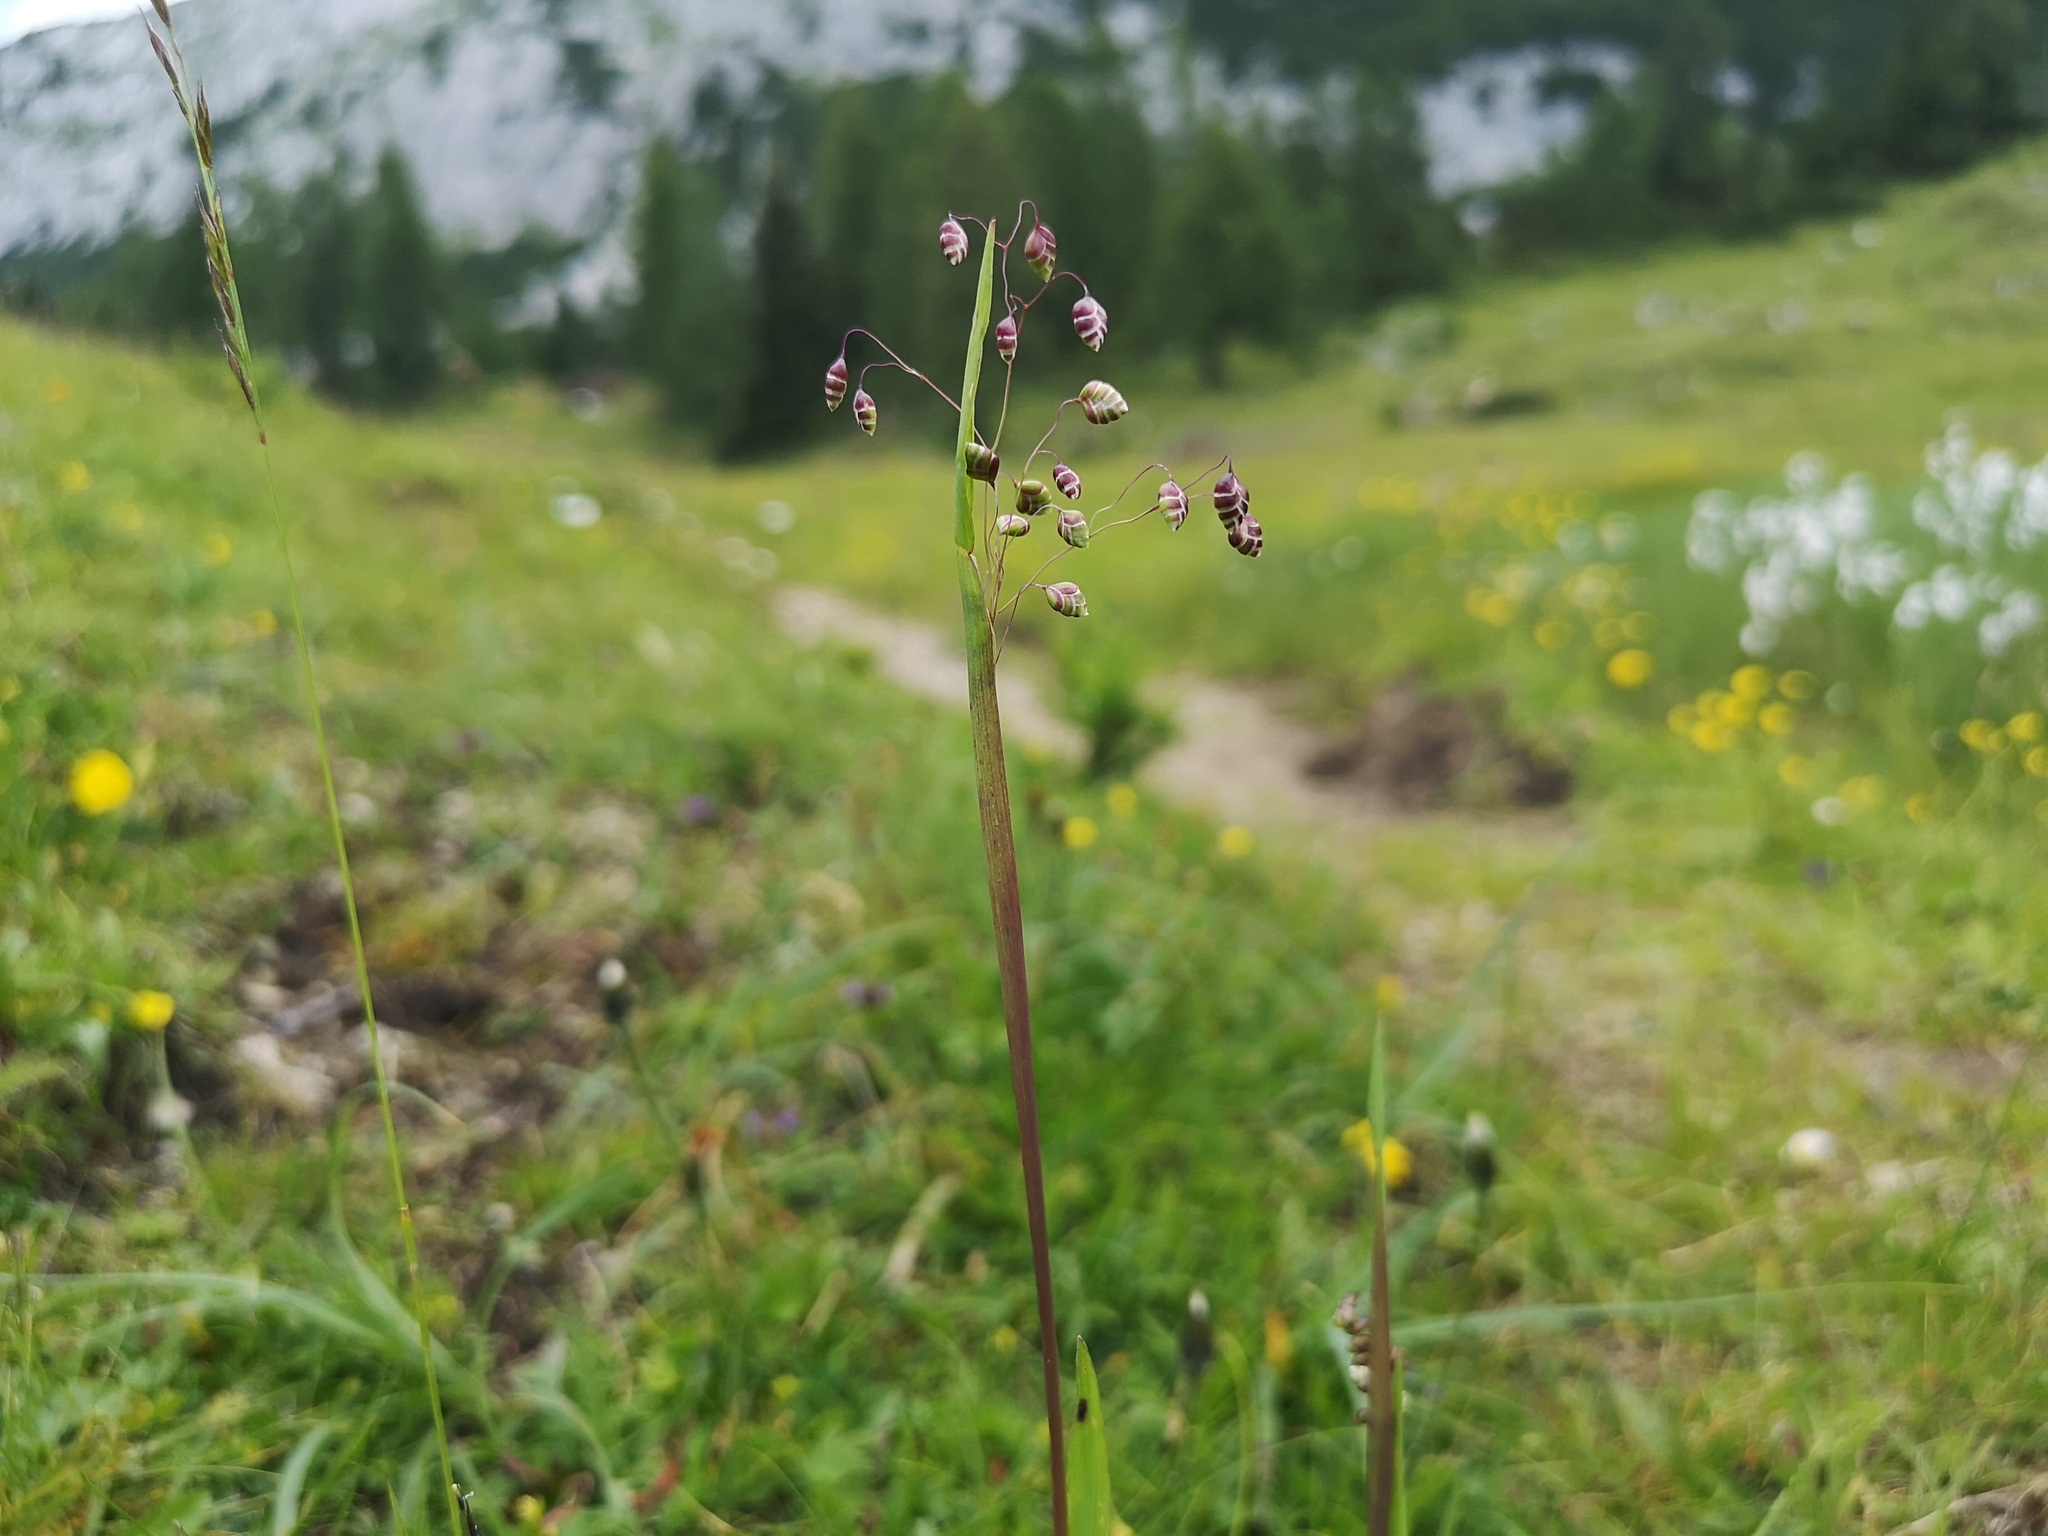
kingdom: Plantae
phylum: Tracheophyta
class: Liliopsida
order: Poales
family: Poaceae
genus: Briza
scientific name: Briza media
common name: Quaking grass
